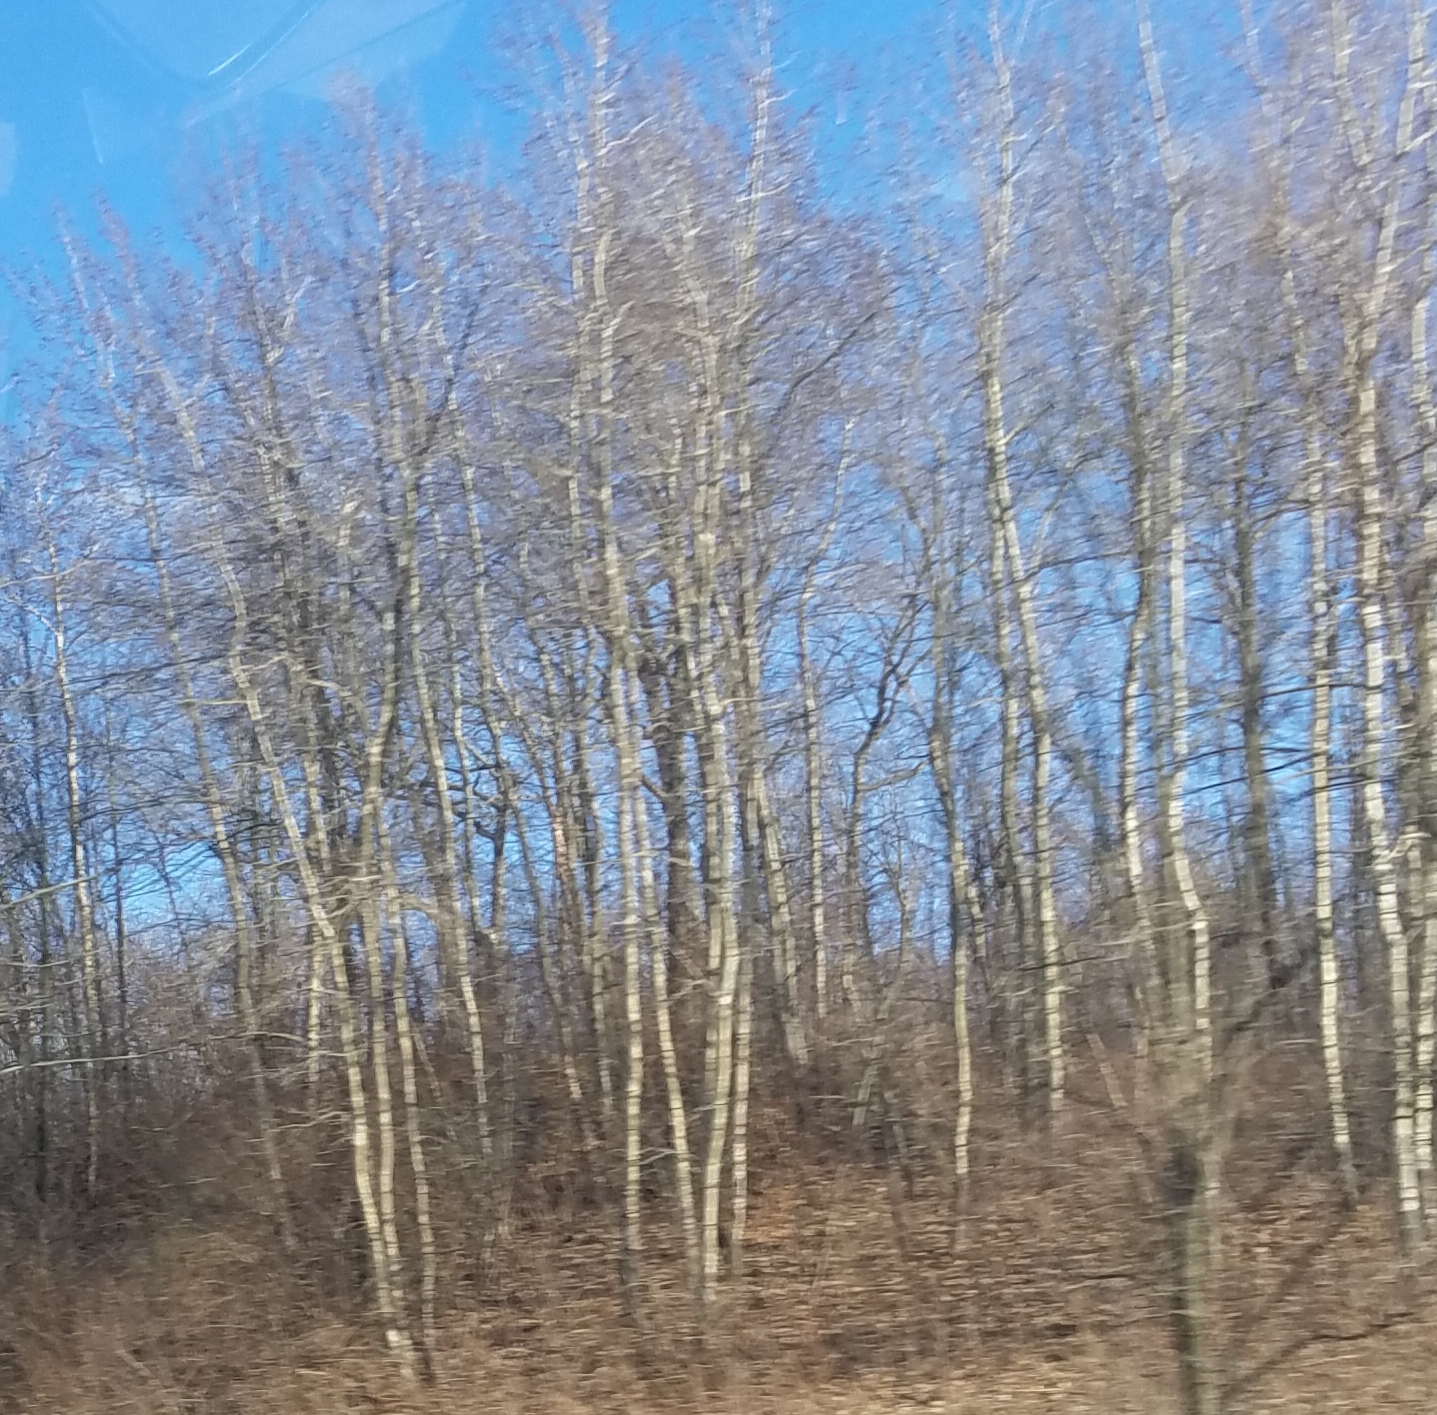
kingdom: Plantae
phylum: Tracheophyta
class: Magnoliopsida
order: Malpighiales
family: Salicaceae
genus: Populus
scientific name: Populus tremuloides
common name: Quaking aspen
